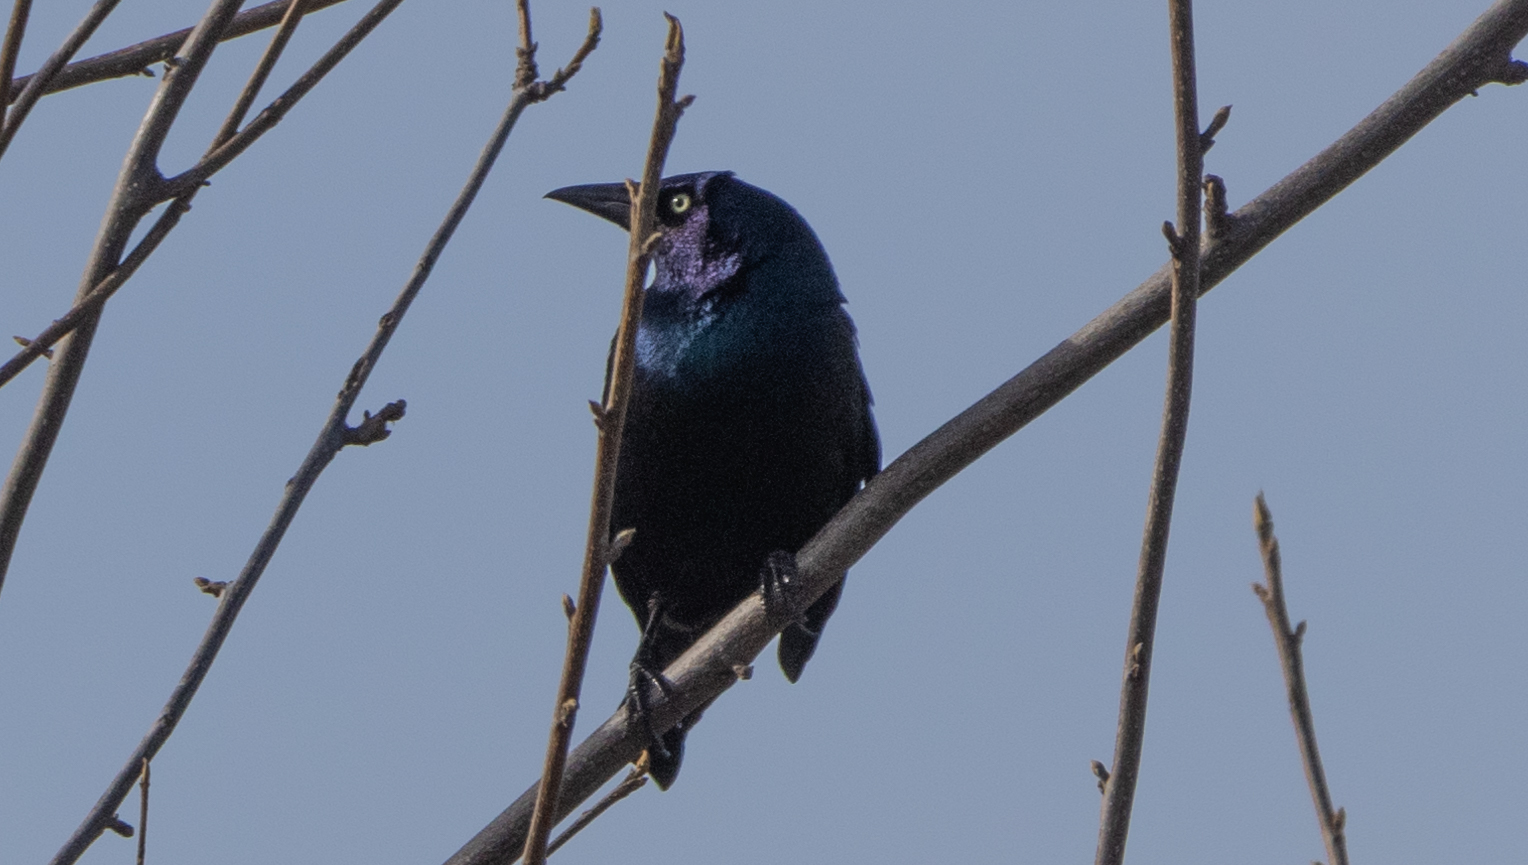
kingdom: Animalia
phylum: Chordata
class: Aves
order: Passeriformes
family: Icteridae
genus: Quiscalus
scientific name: Quiscalus quiscula
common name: Common grackle
